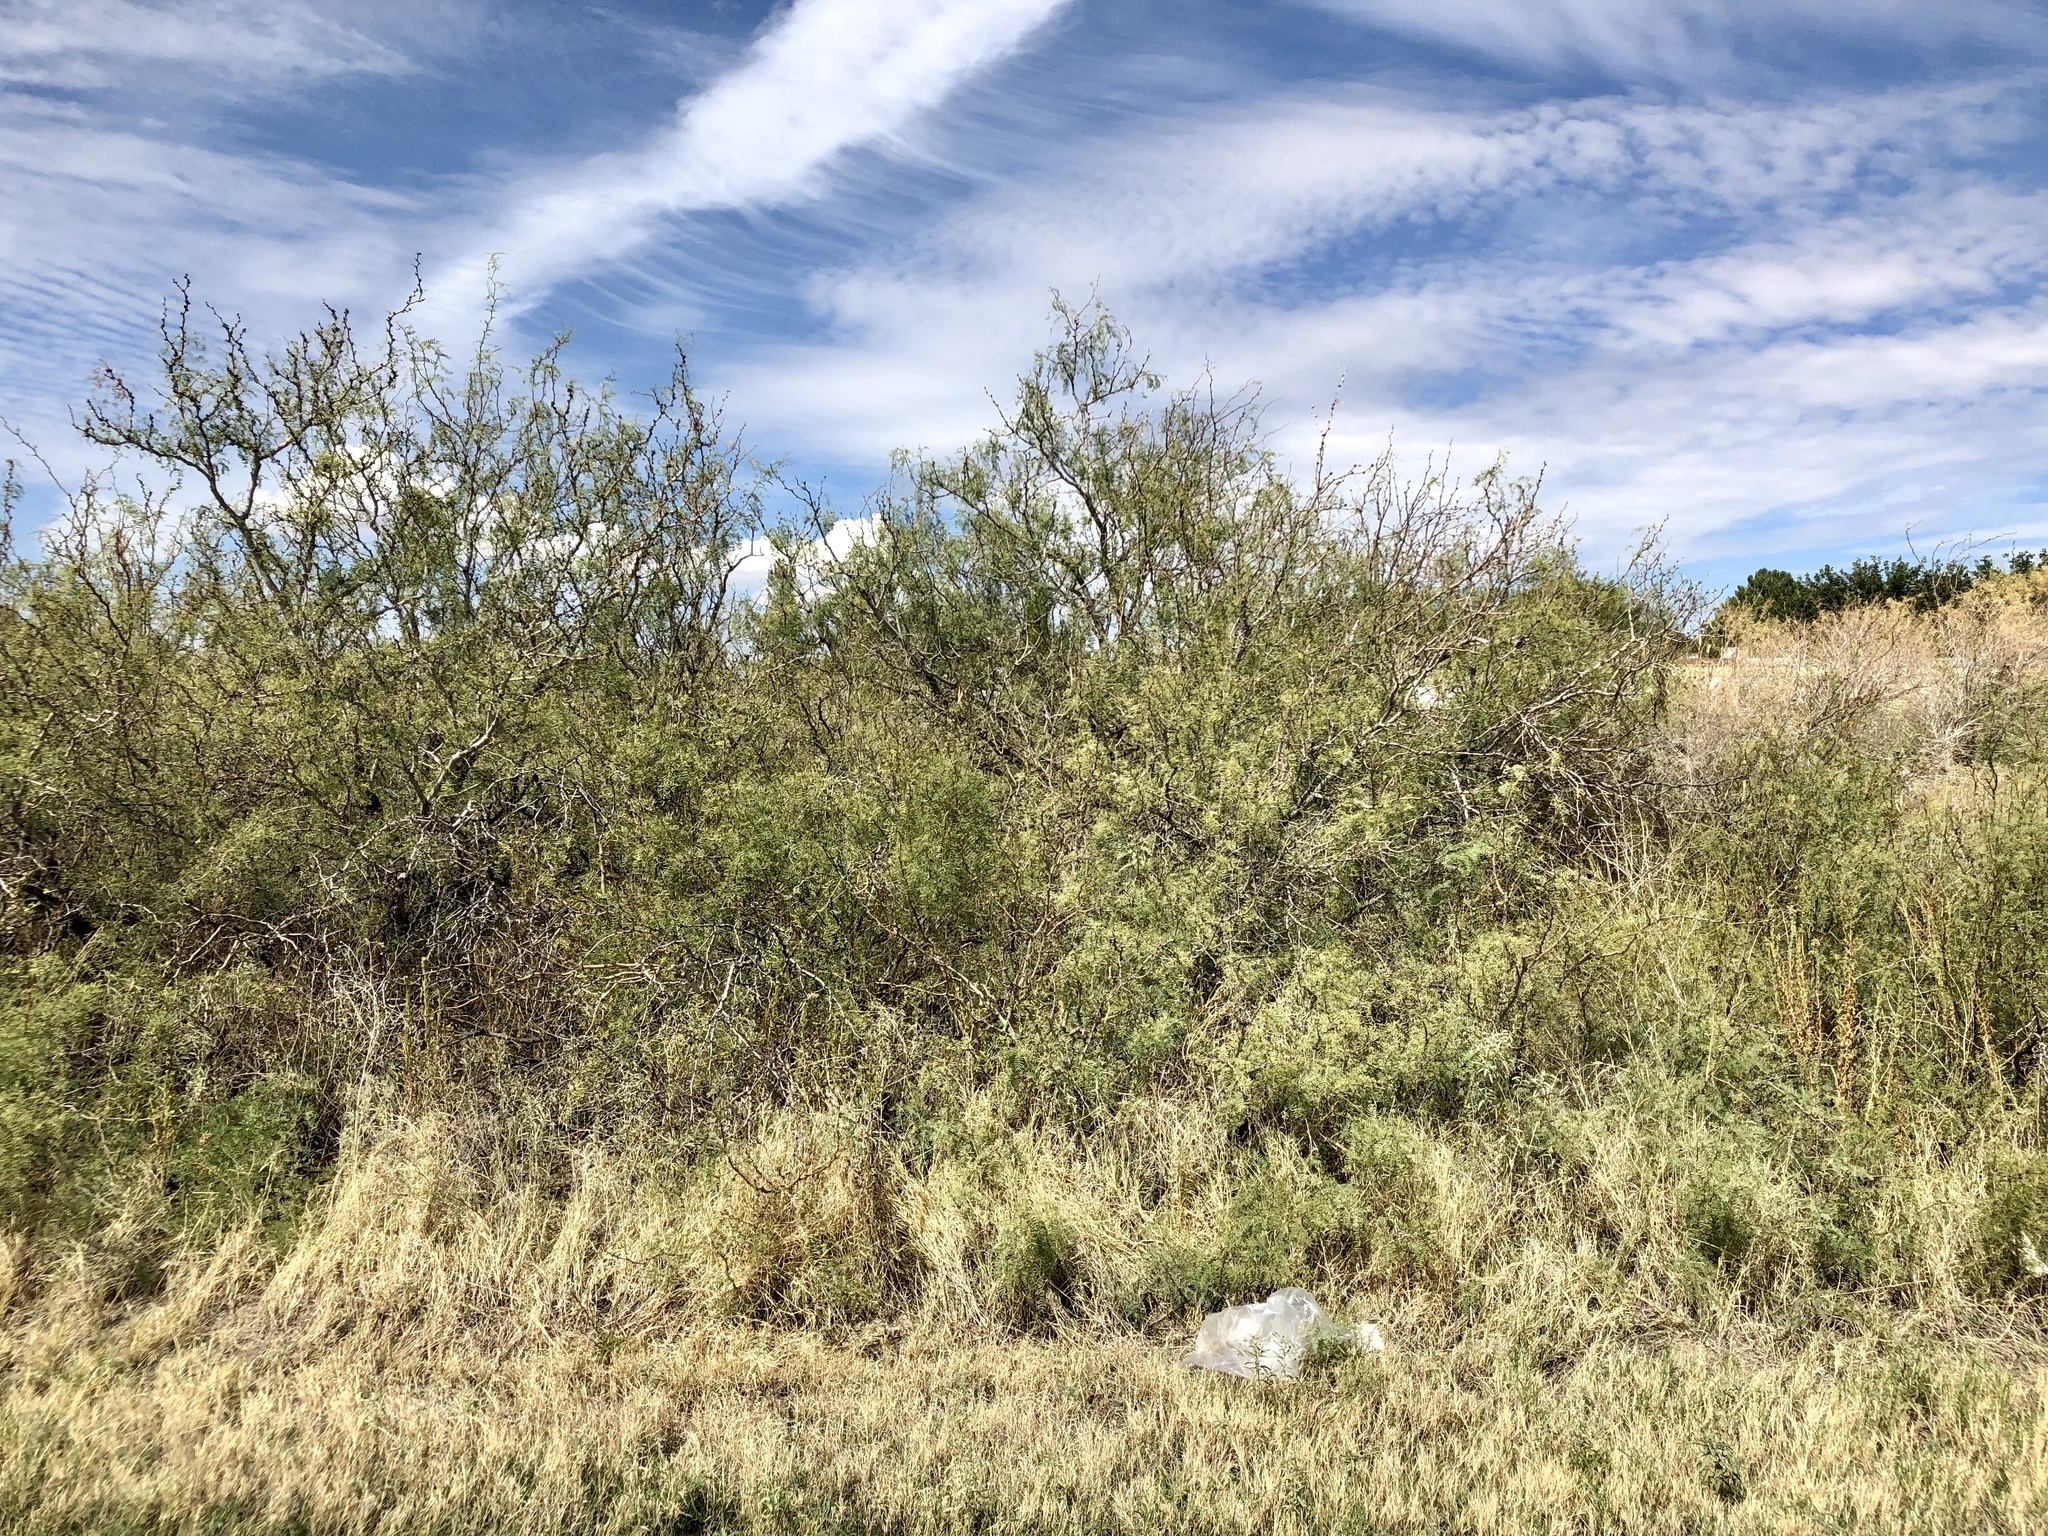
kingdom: Plantae
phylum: Tracheophyta
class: Magnoliopsida
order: Fabales
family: Fabaceae
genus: Prosopis
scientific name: Prosopis glandulosa
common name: Honey mesquite
